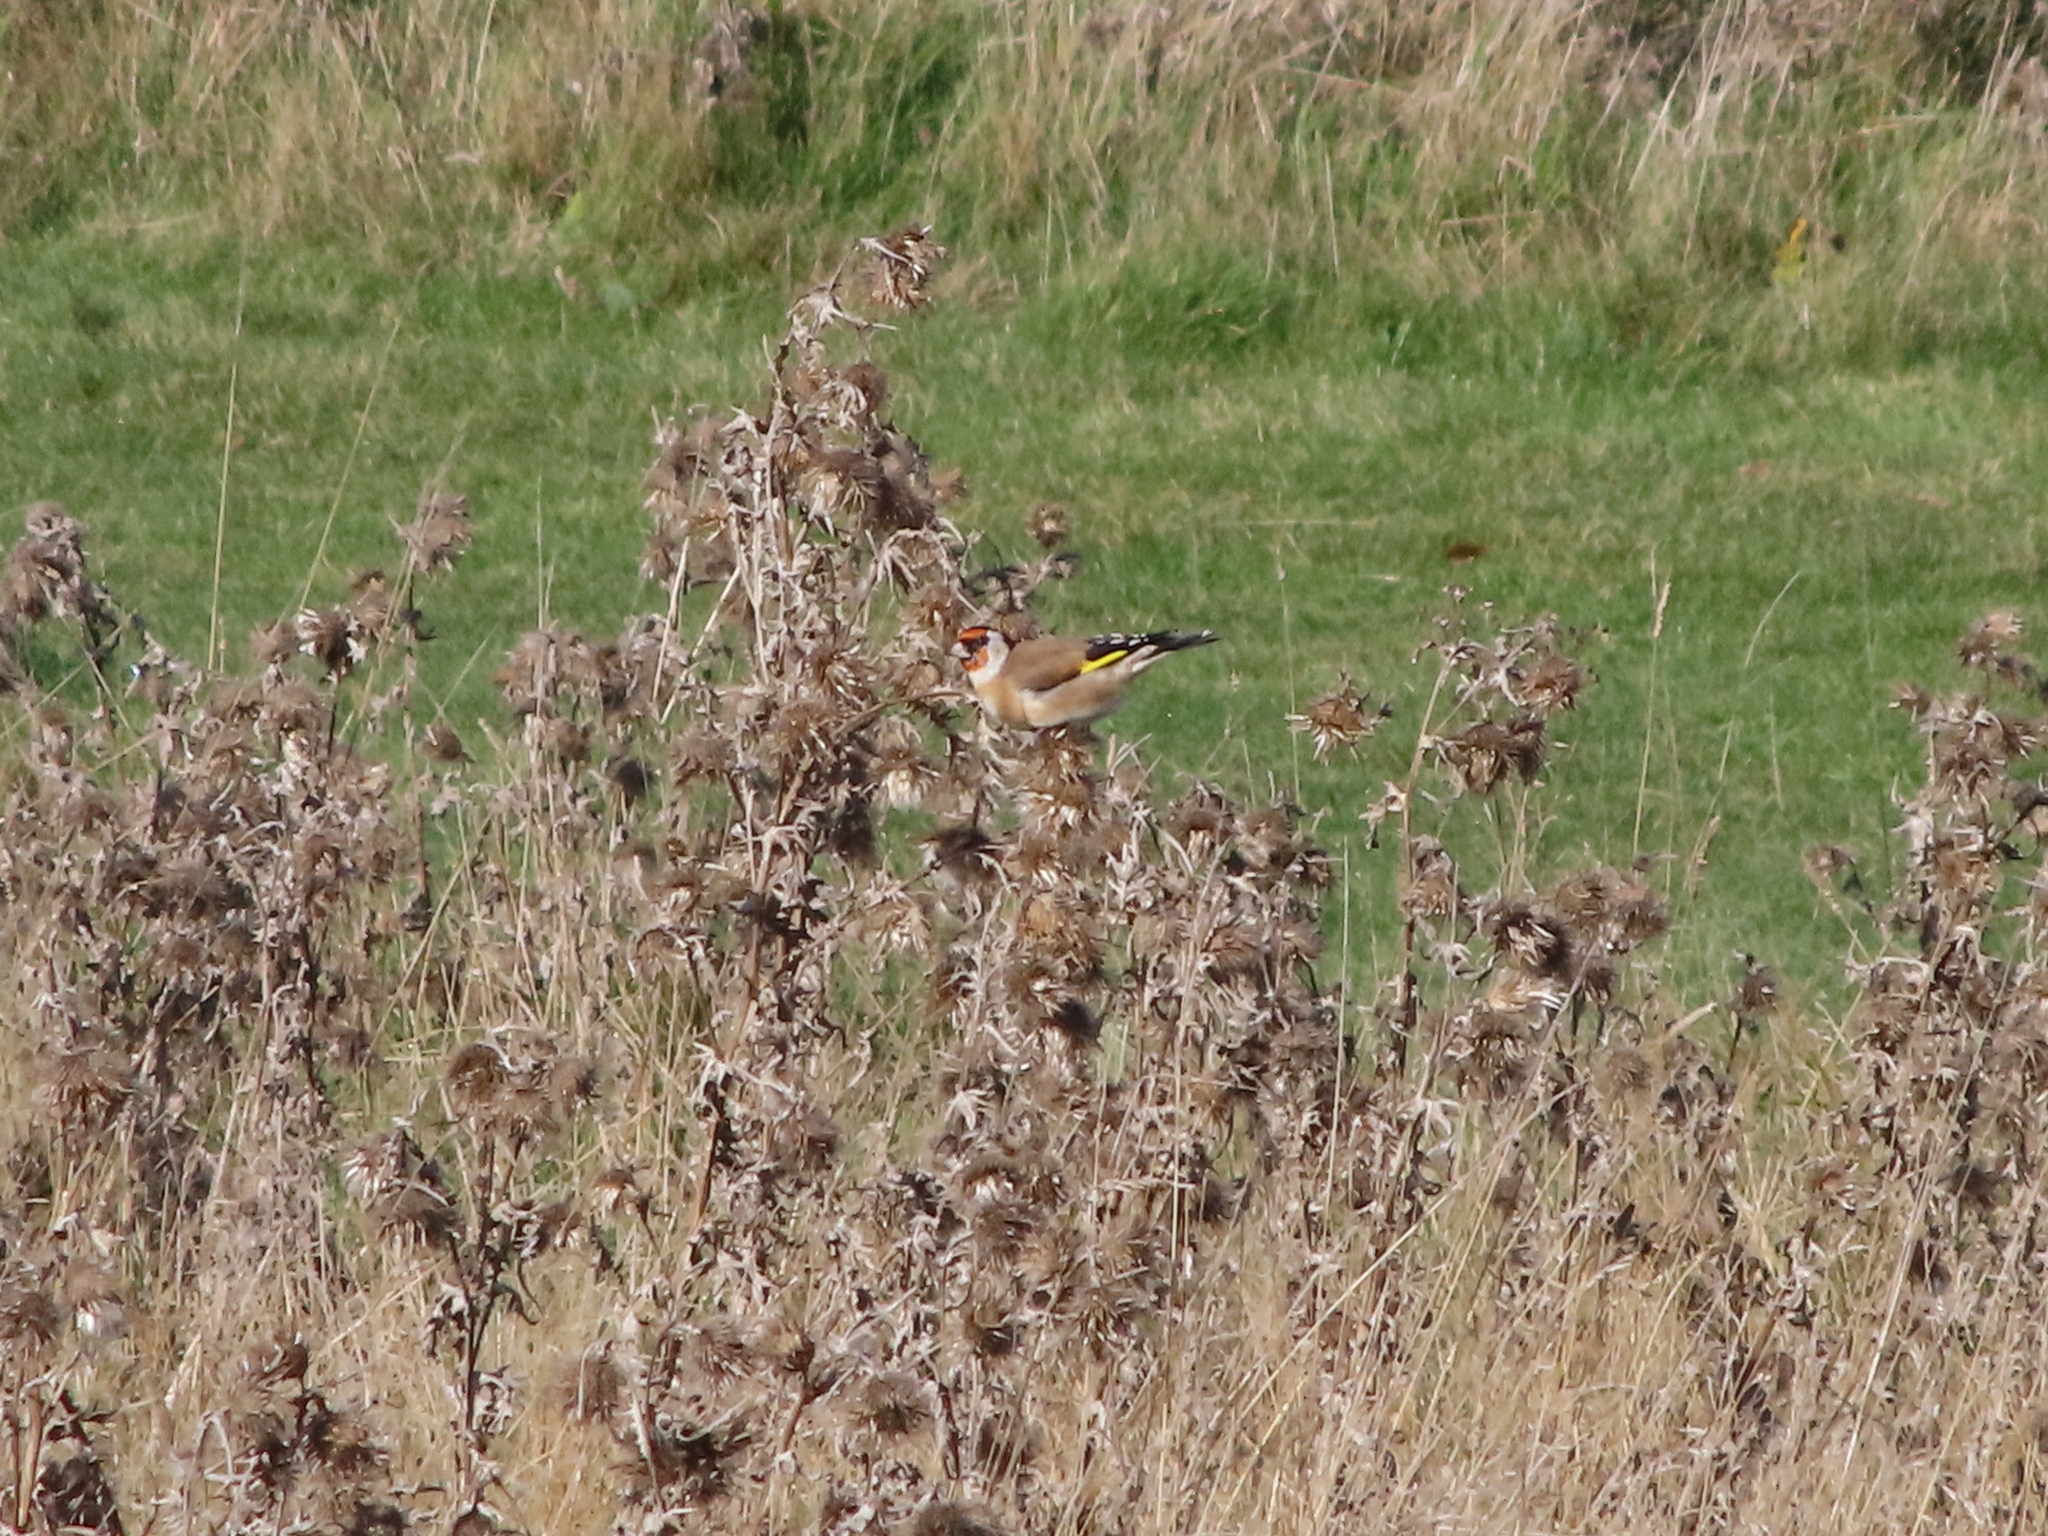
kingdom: Animalia
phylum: Chordata
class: Aves
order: Passeriformes
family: Fringillidae
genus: Carduelis
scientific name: Carduelis carduelis
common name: European goldfinch
